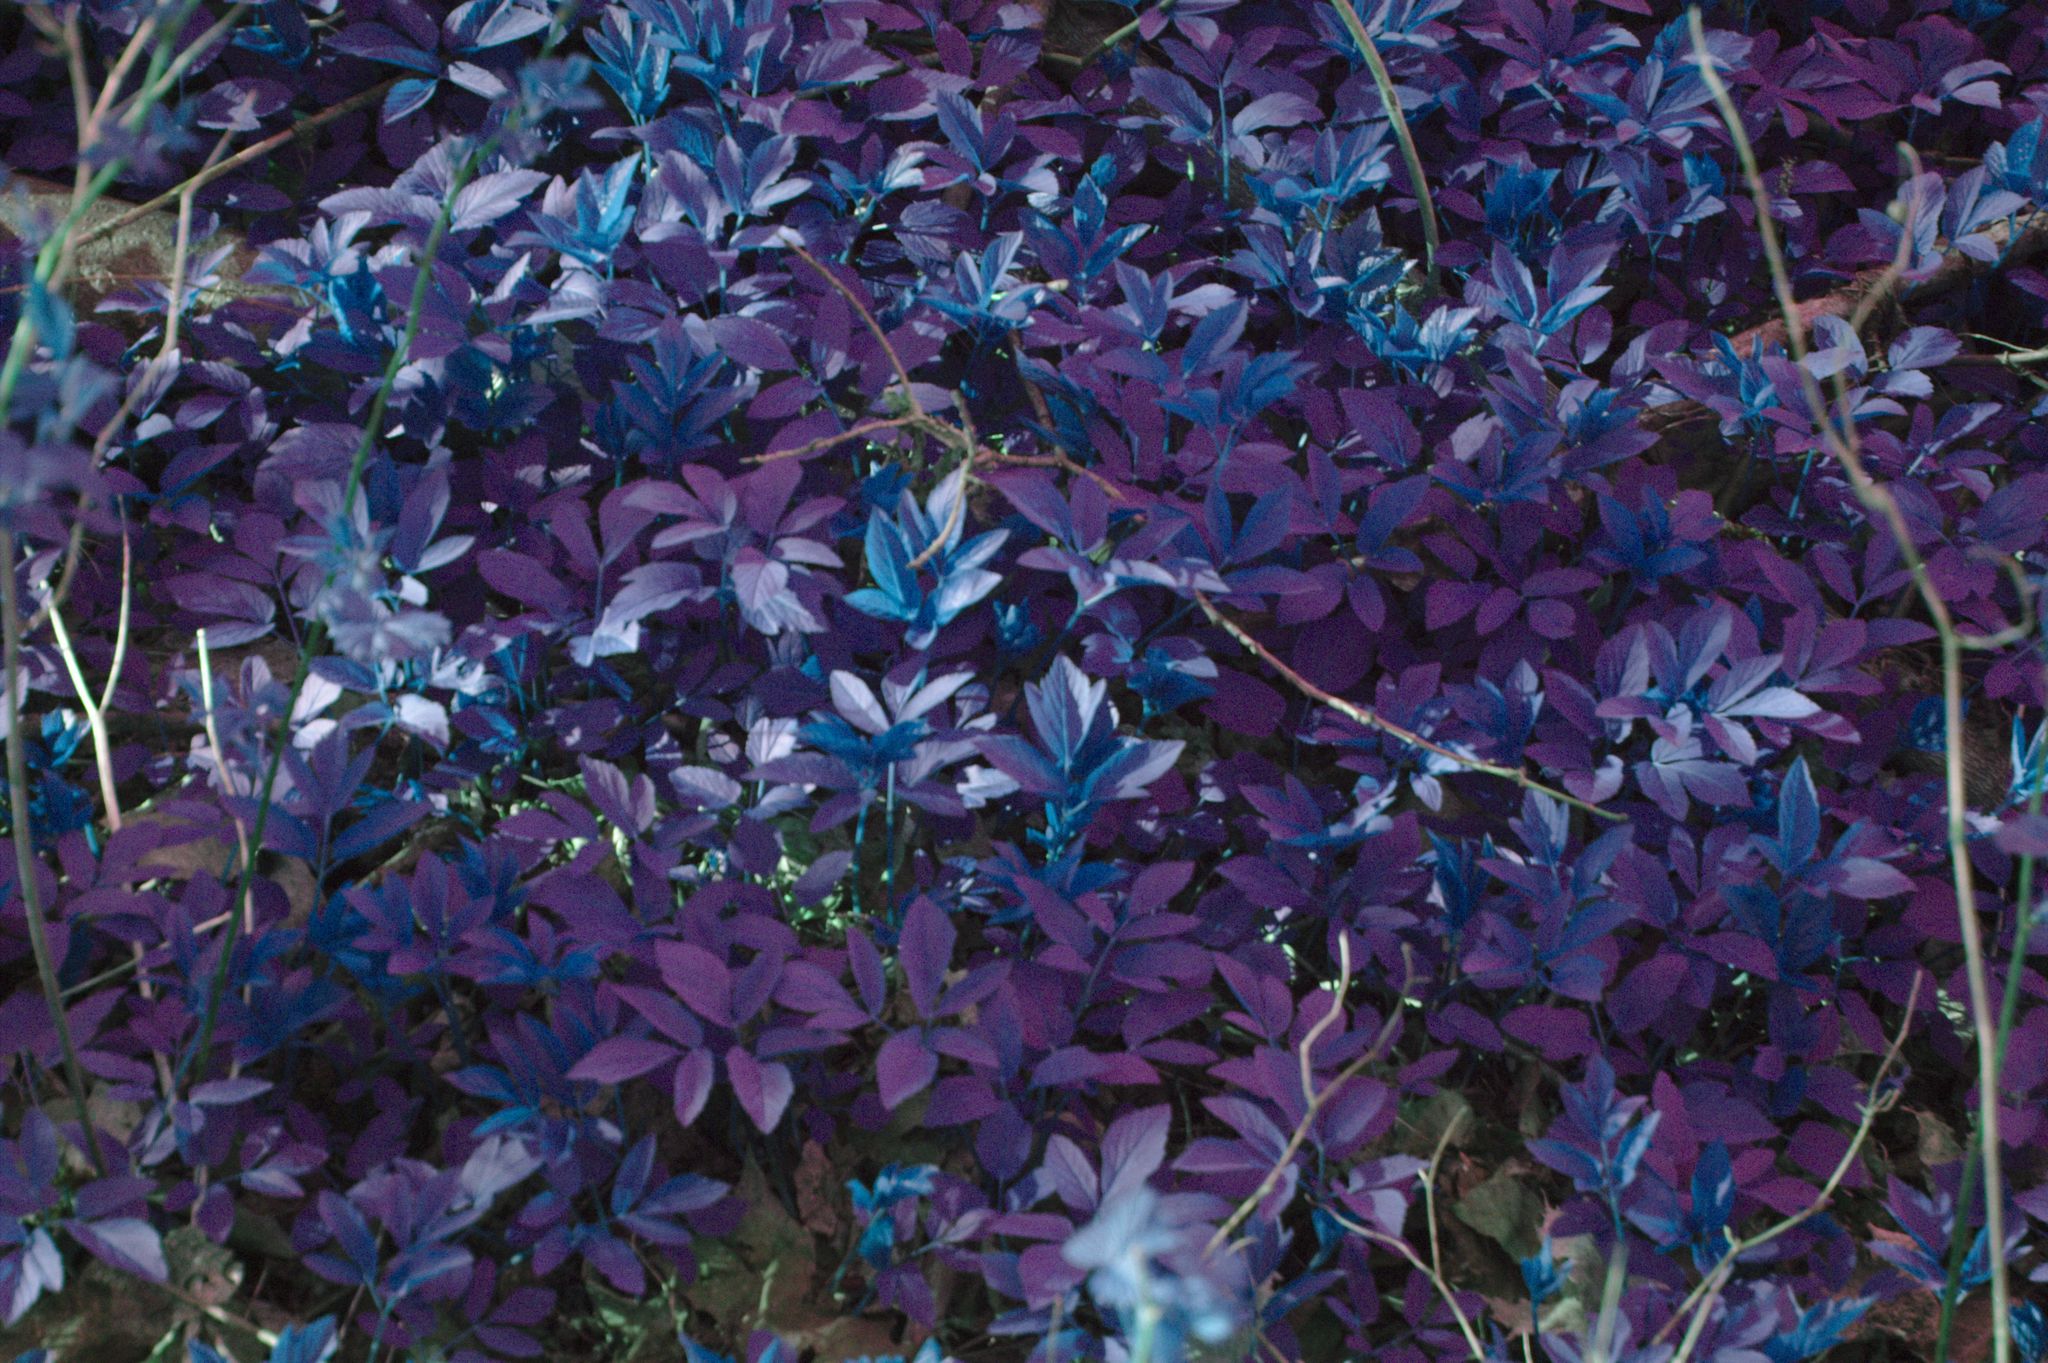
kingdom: Plantae
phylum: Tracheophyta
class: Magnoliopsida
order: Apiales
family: Apiaceae
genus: Aegopodium
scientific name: Aegopodium podagraria
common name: Ground-elder
